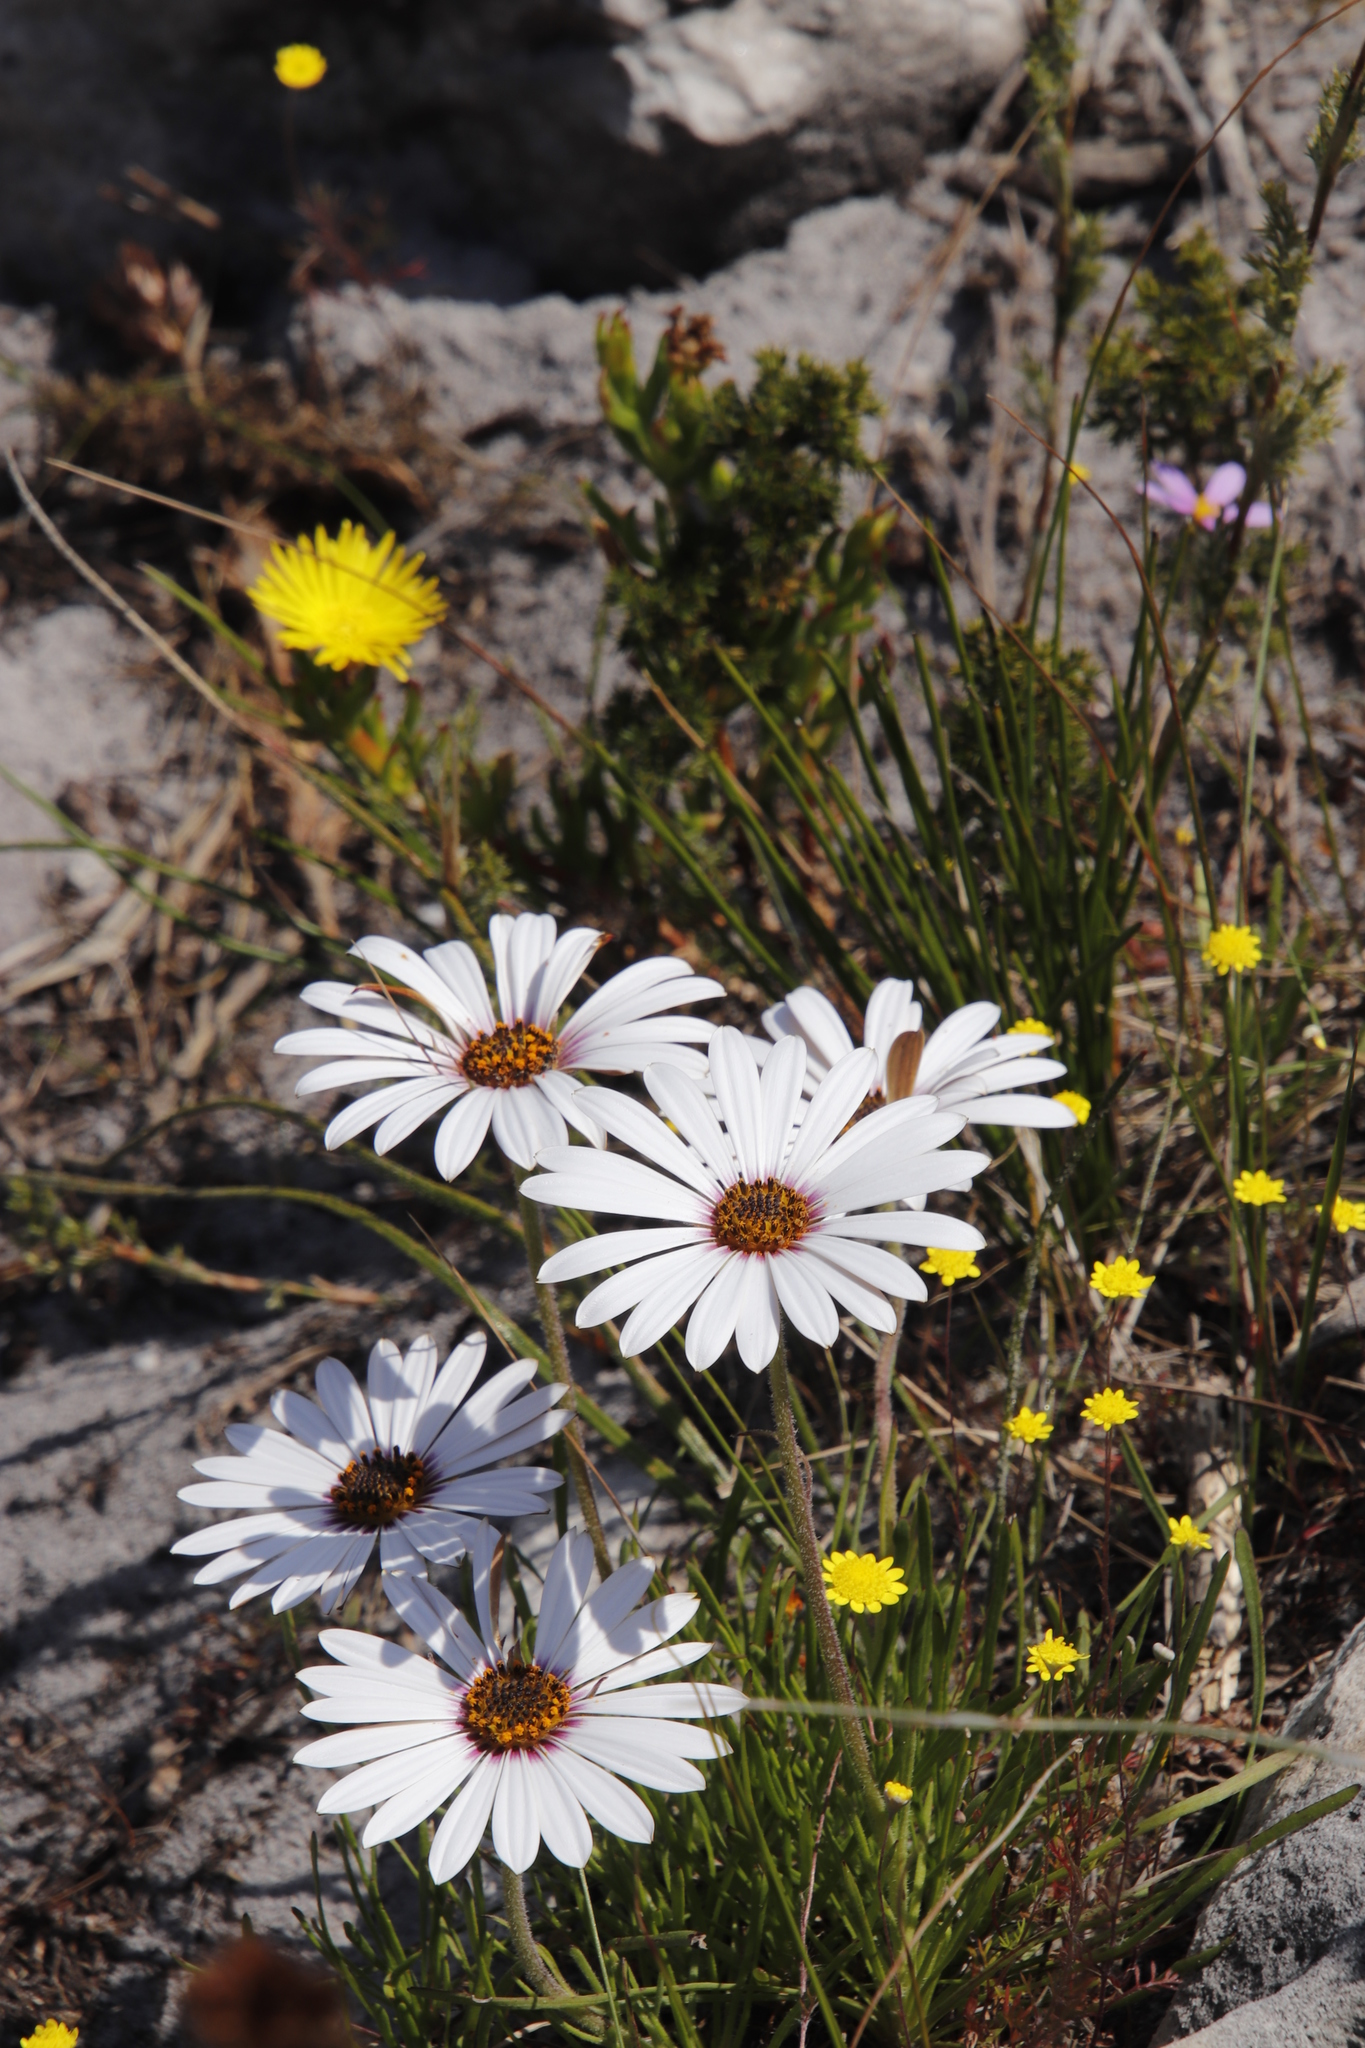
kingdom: Plantae
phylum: Tracheophyta
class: Magnoliopsida
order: Asterales
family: Asteraceae
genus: Dimorphotheca
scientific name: Dimorphotheca nudicaulis
